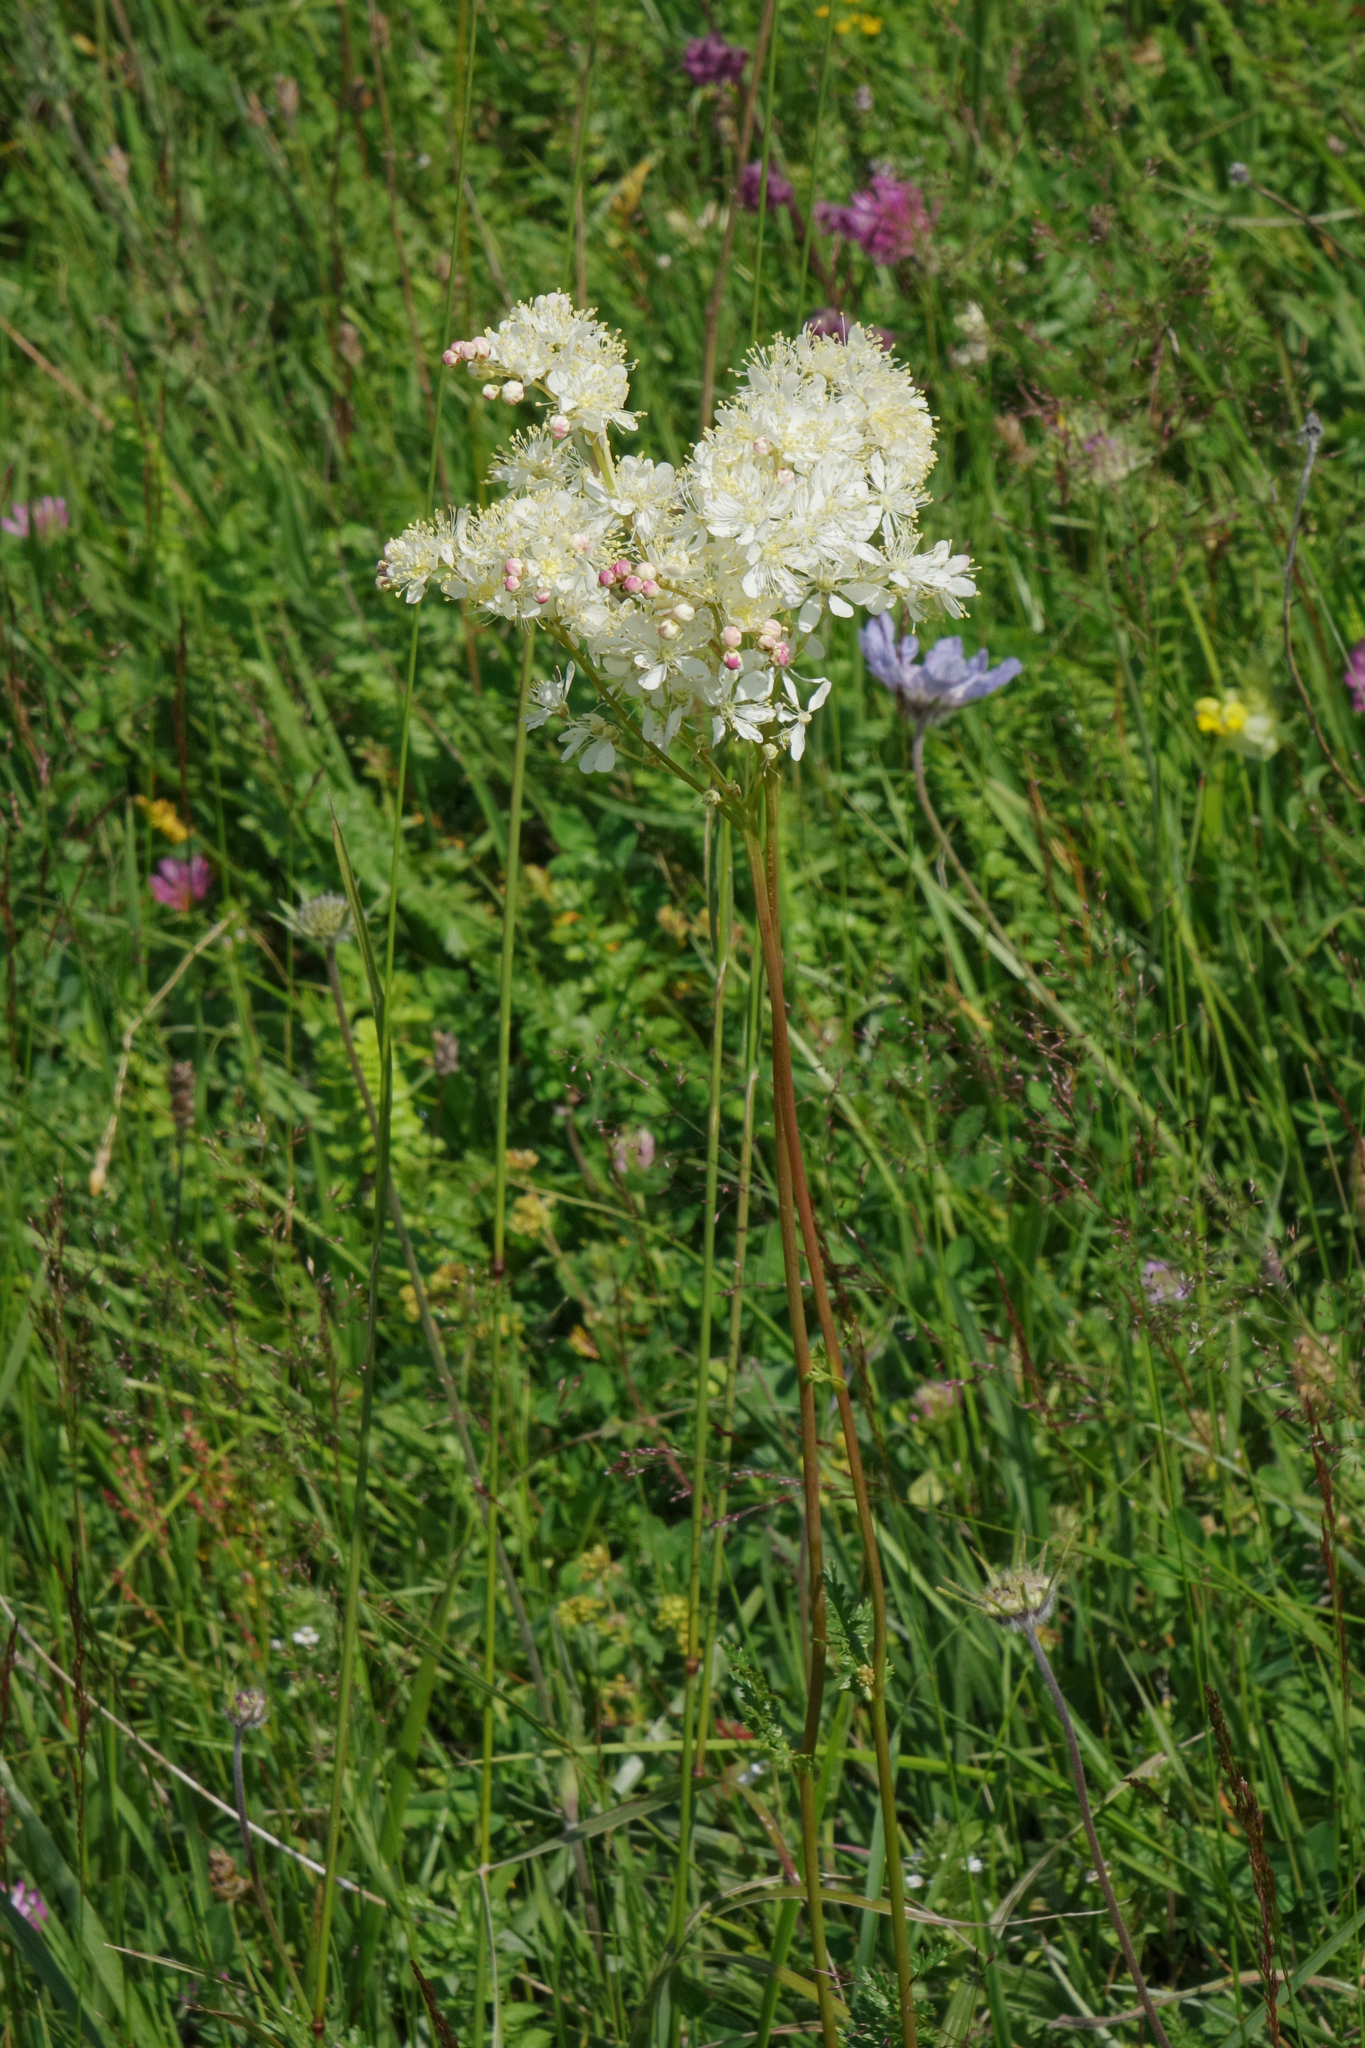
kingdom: Plantae
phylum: Tracheophyta
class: Magnoliopsida
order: Rosales
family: Rosaceae
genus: Filipendula
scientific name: Filipendula vulgaris
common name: Dropwort
